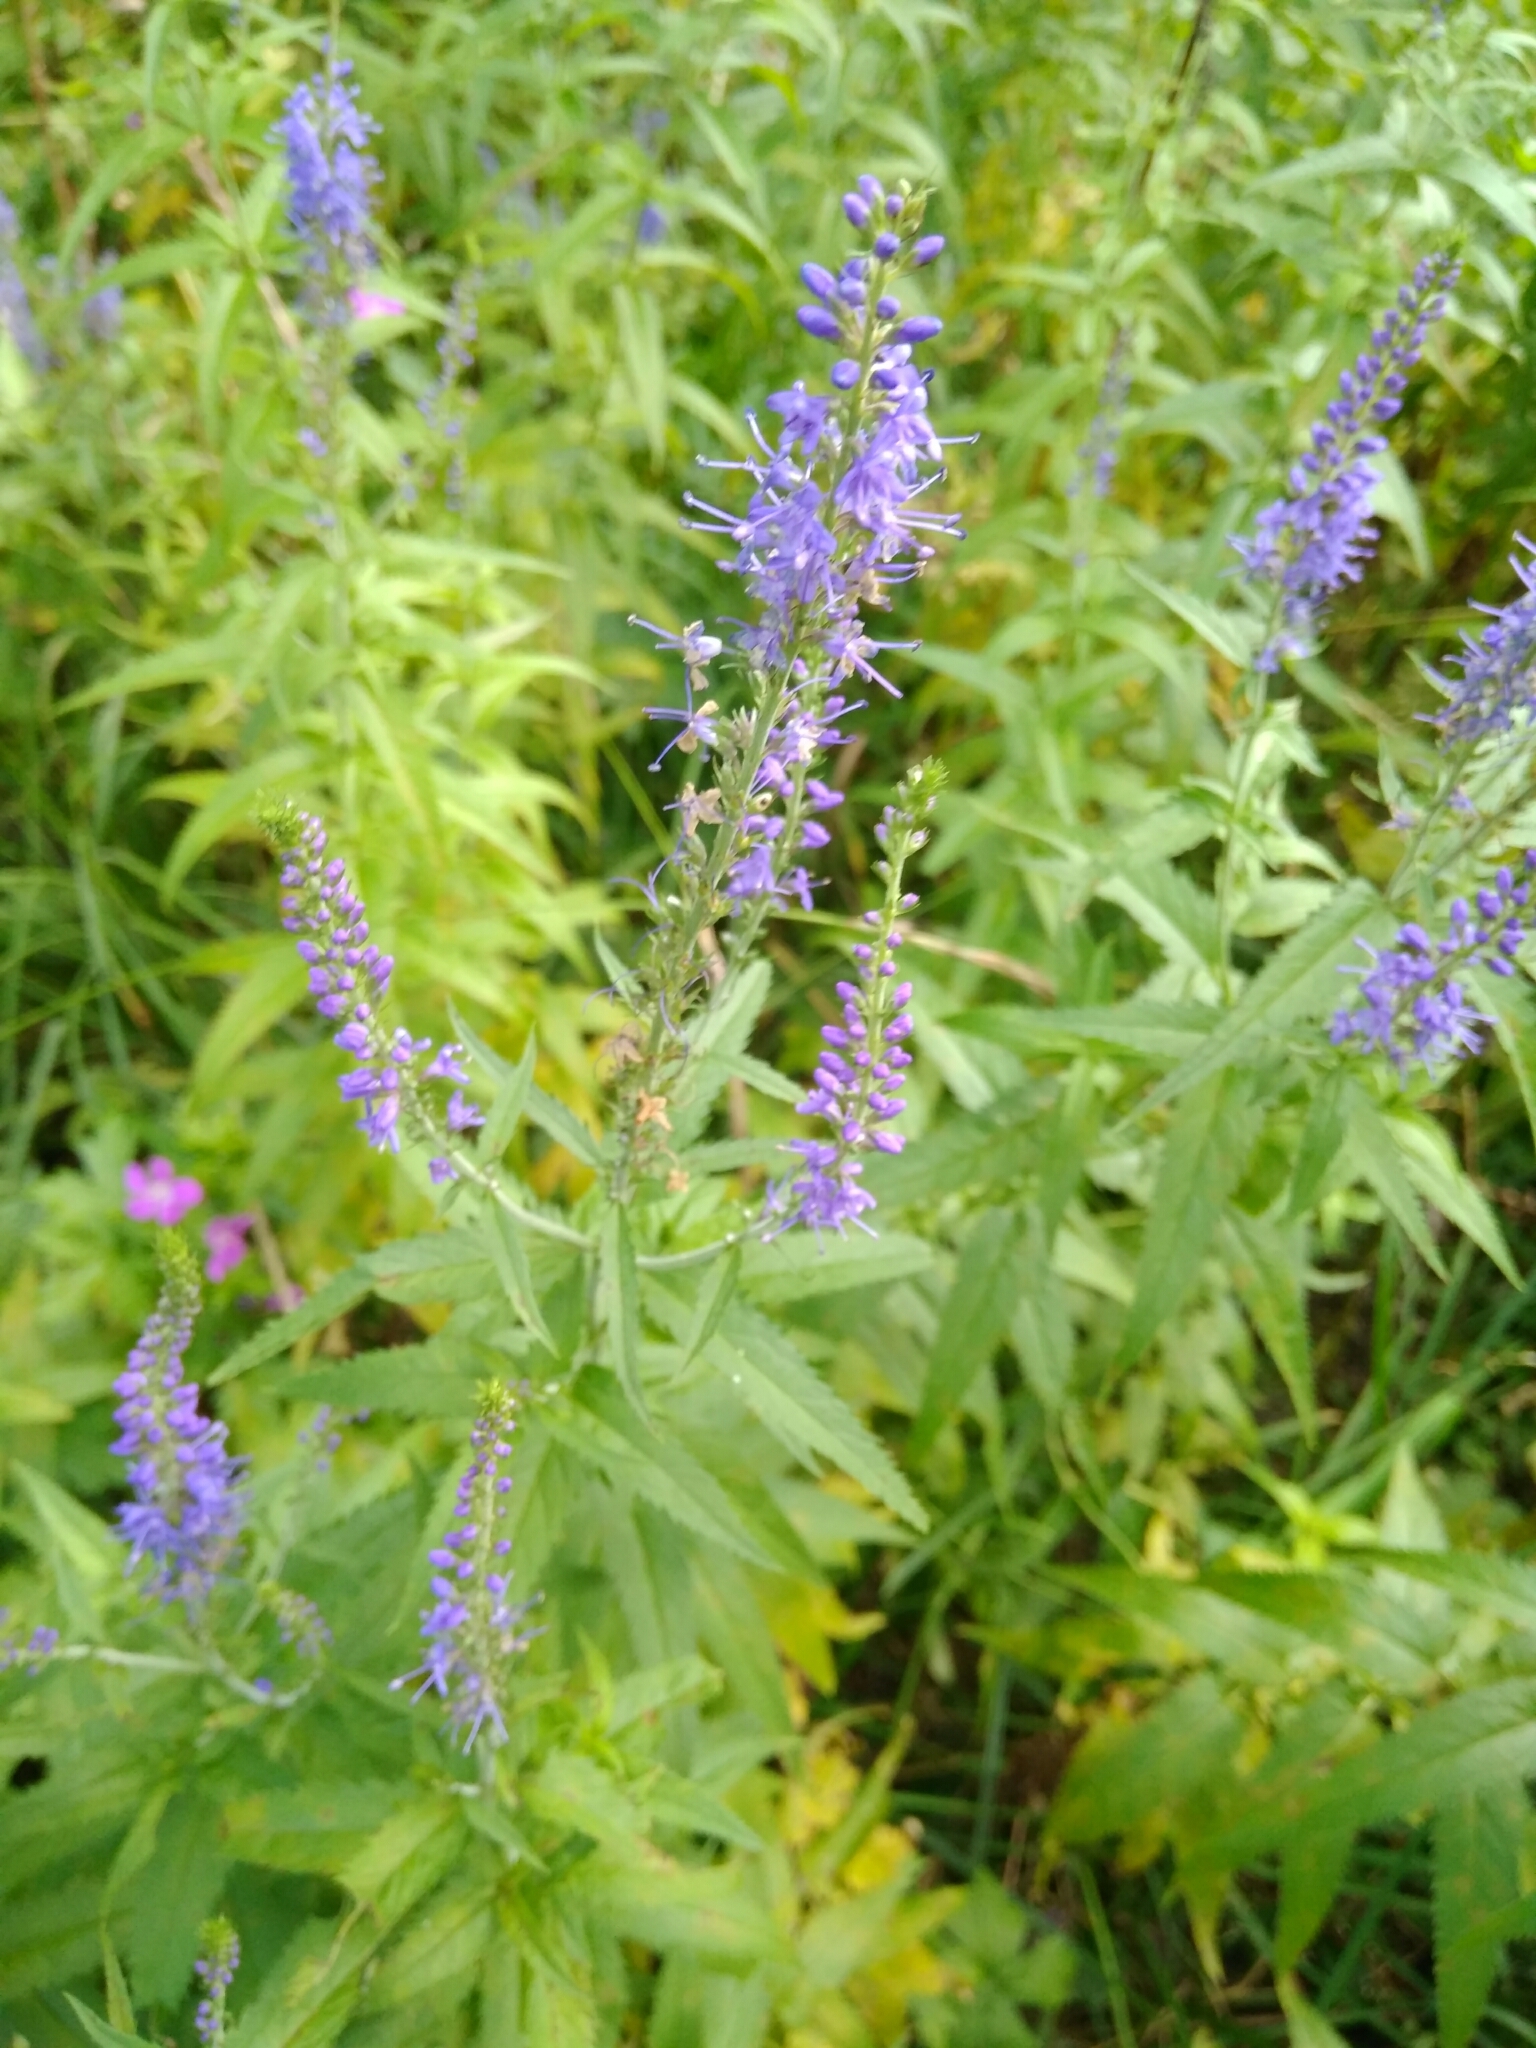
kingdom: Plantae
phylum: Tracheophyta
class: Magnoliopsida
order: Lamiales
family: Plantaginaceae
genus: Veronica
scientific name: Veronica longifolia
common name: Garden speedwell
